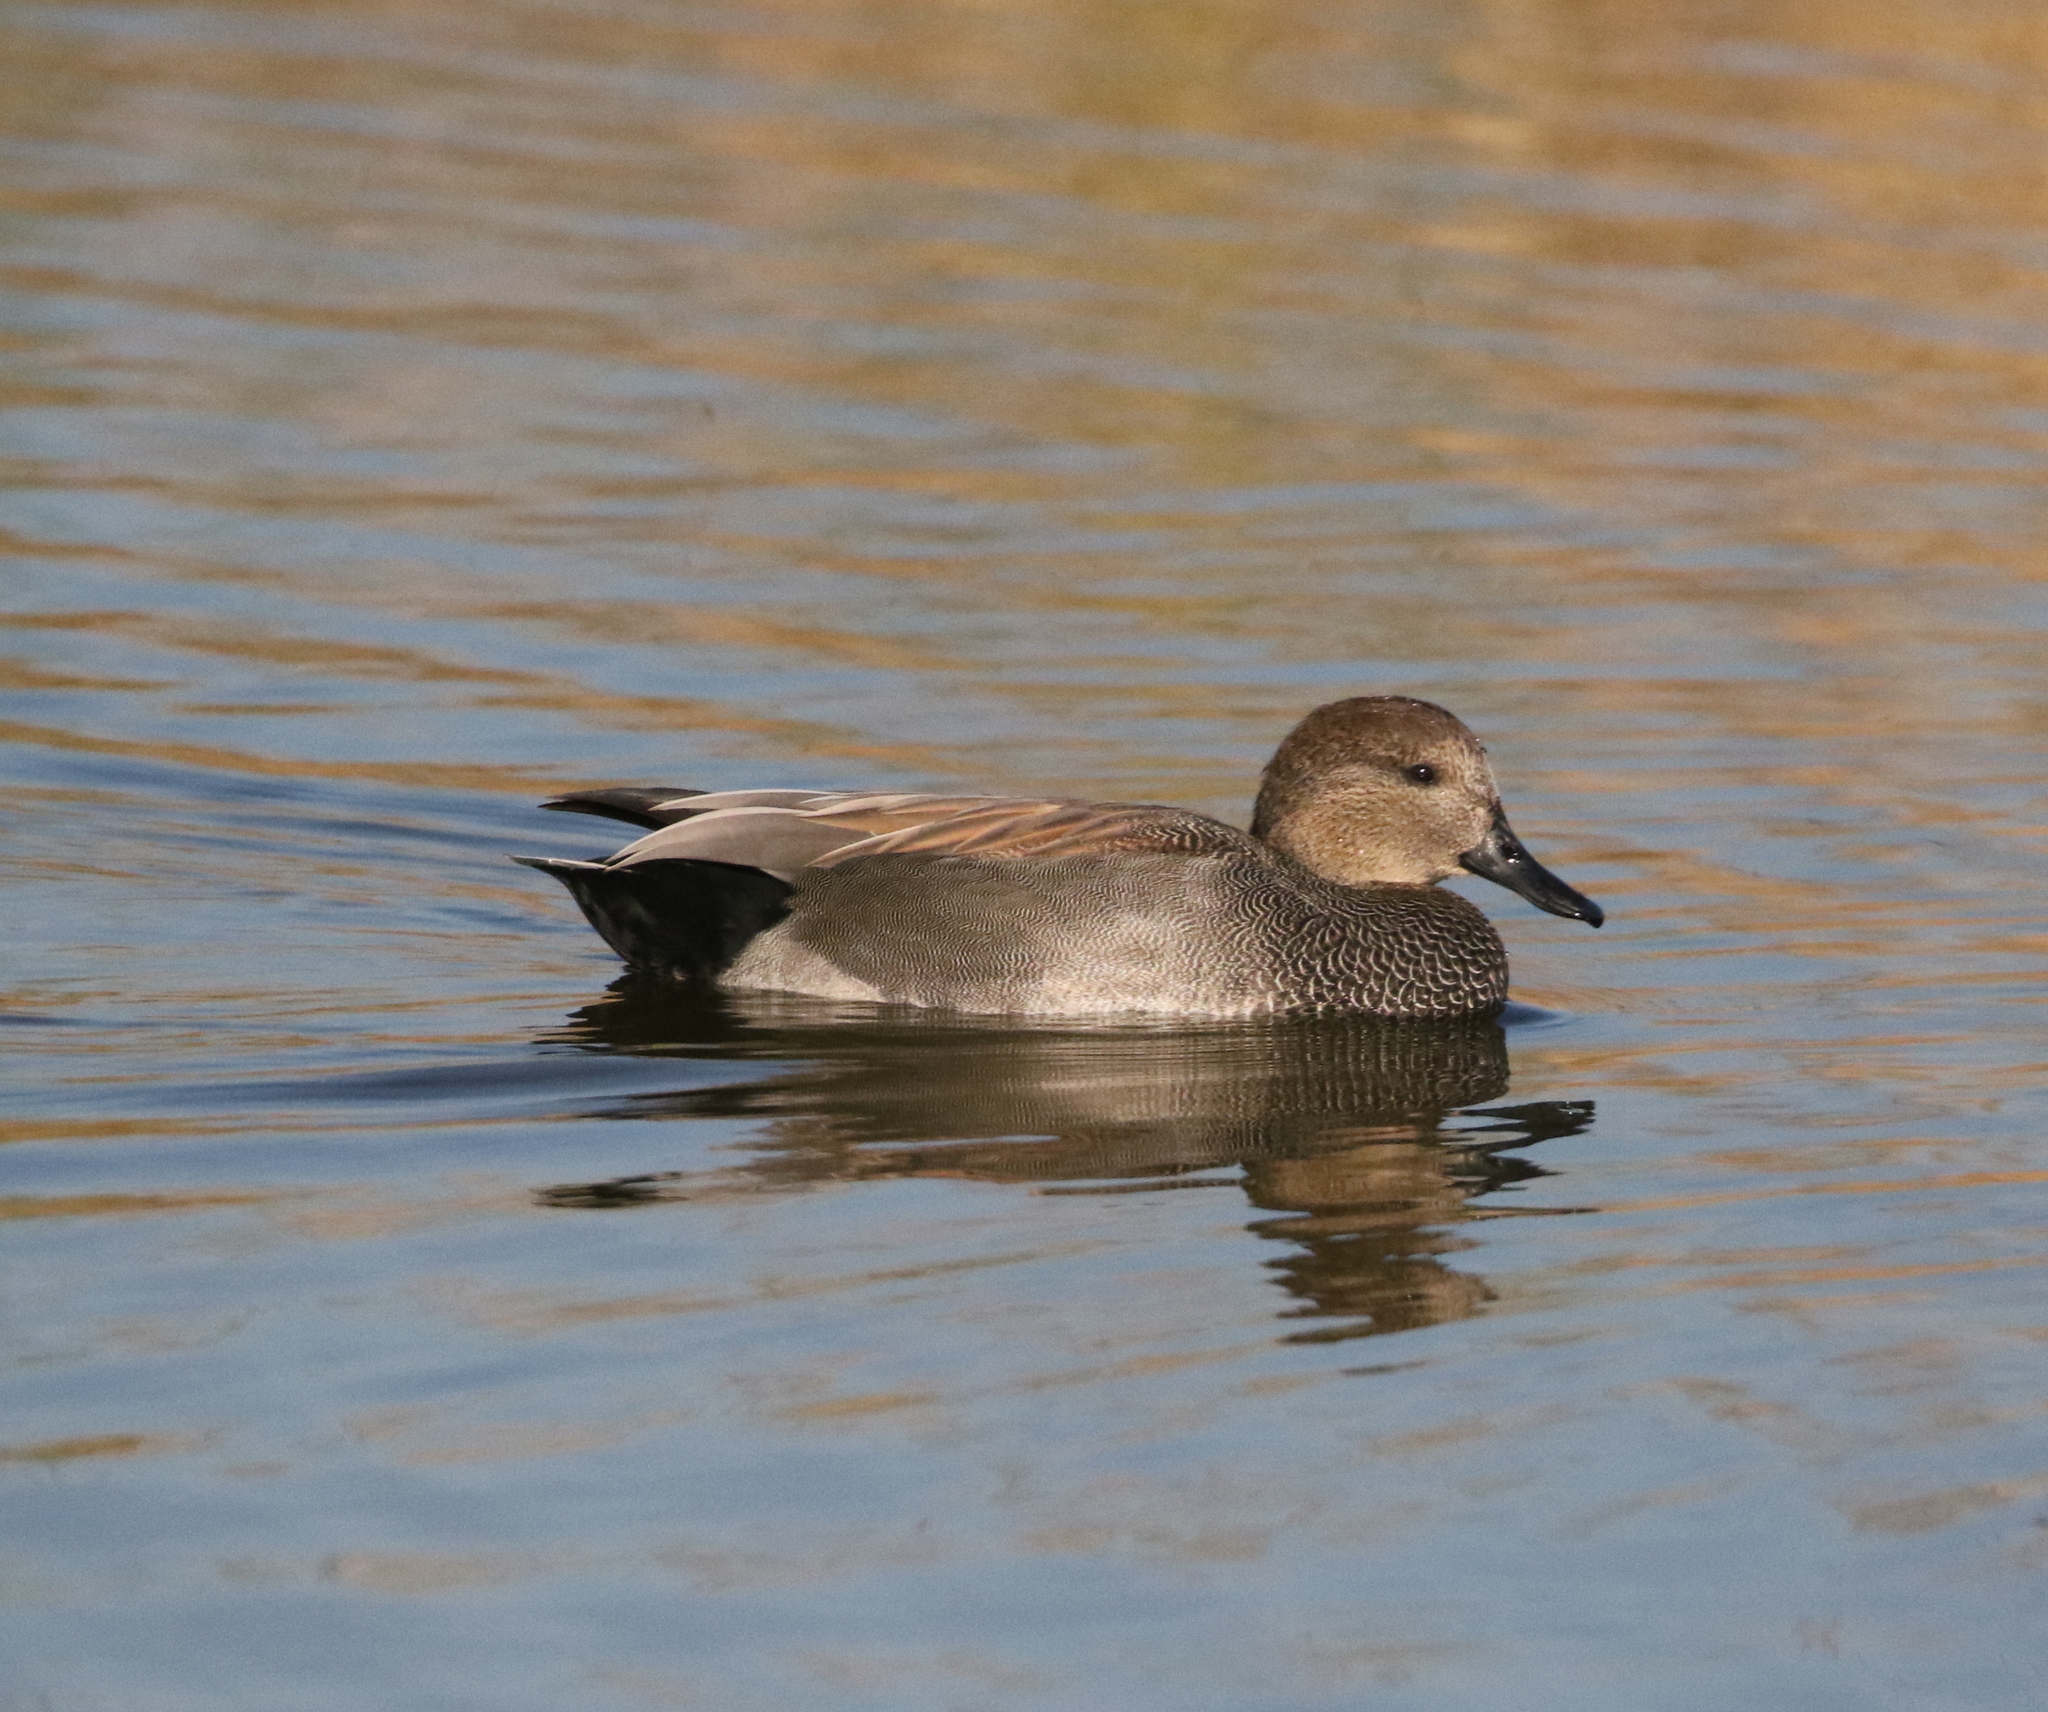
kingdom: Animalia
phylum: Chordata
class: Aves
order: Anseriformes
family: Anatidae
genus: Mareca
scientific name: Mareca strepera
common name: Gadwall
